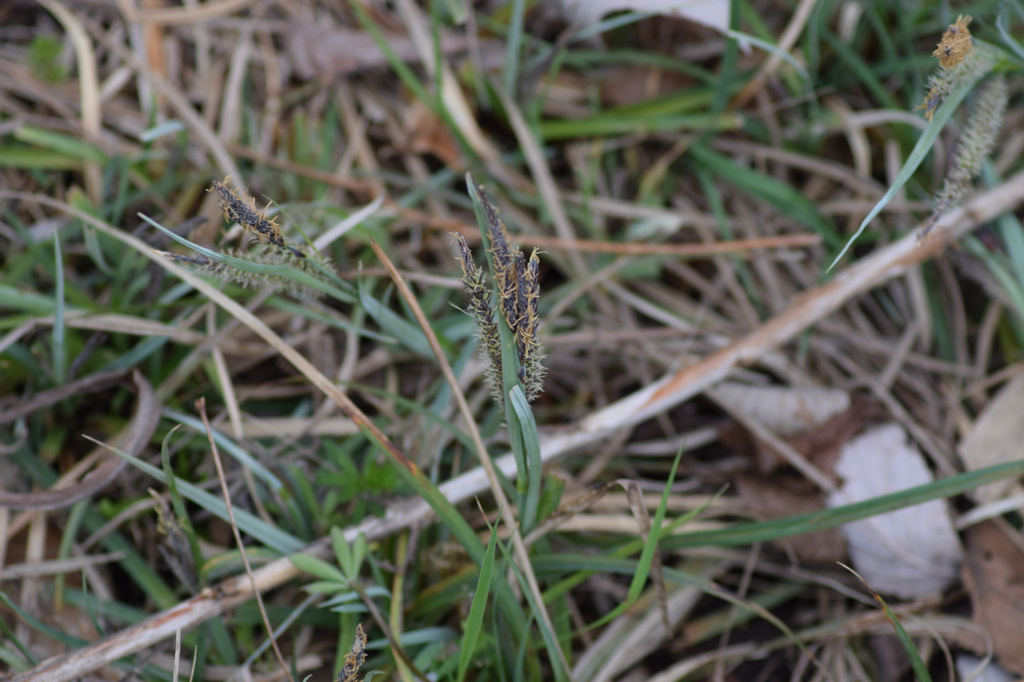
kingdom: Plantae
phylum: Tracheophyta
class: Liliopsida
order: Poales
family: Cyperaceae
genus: Carex
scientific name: Carex flacca
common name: Glaucous sedge
